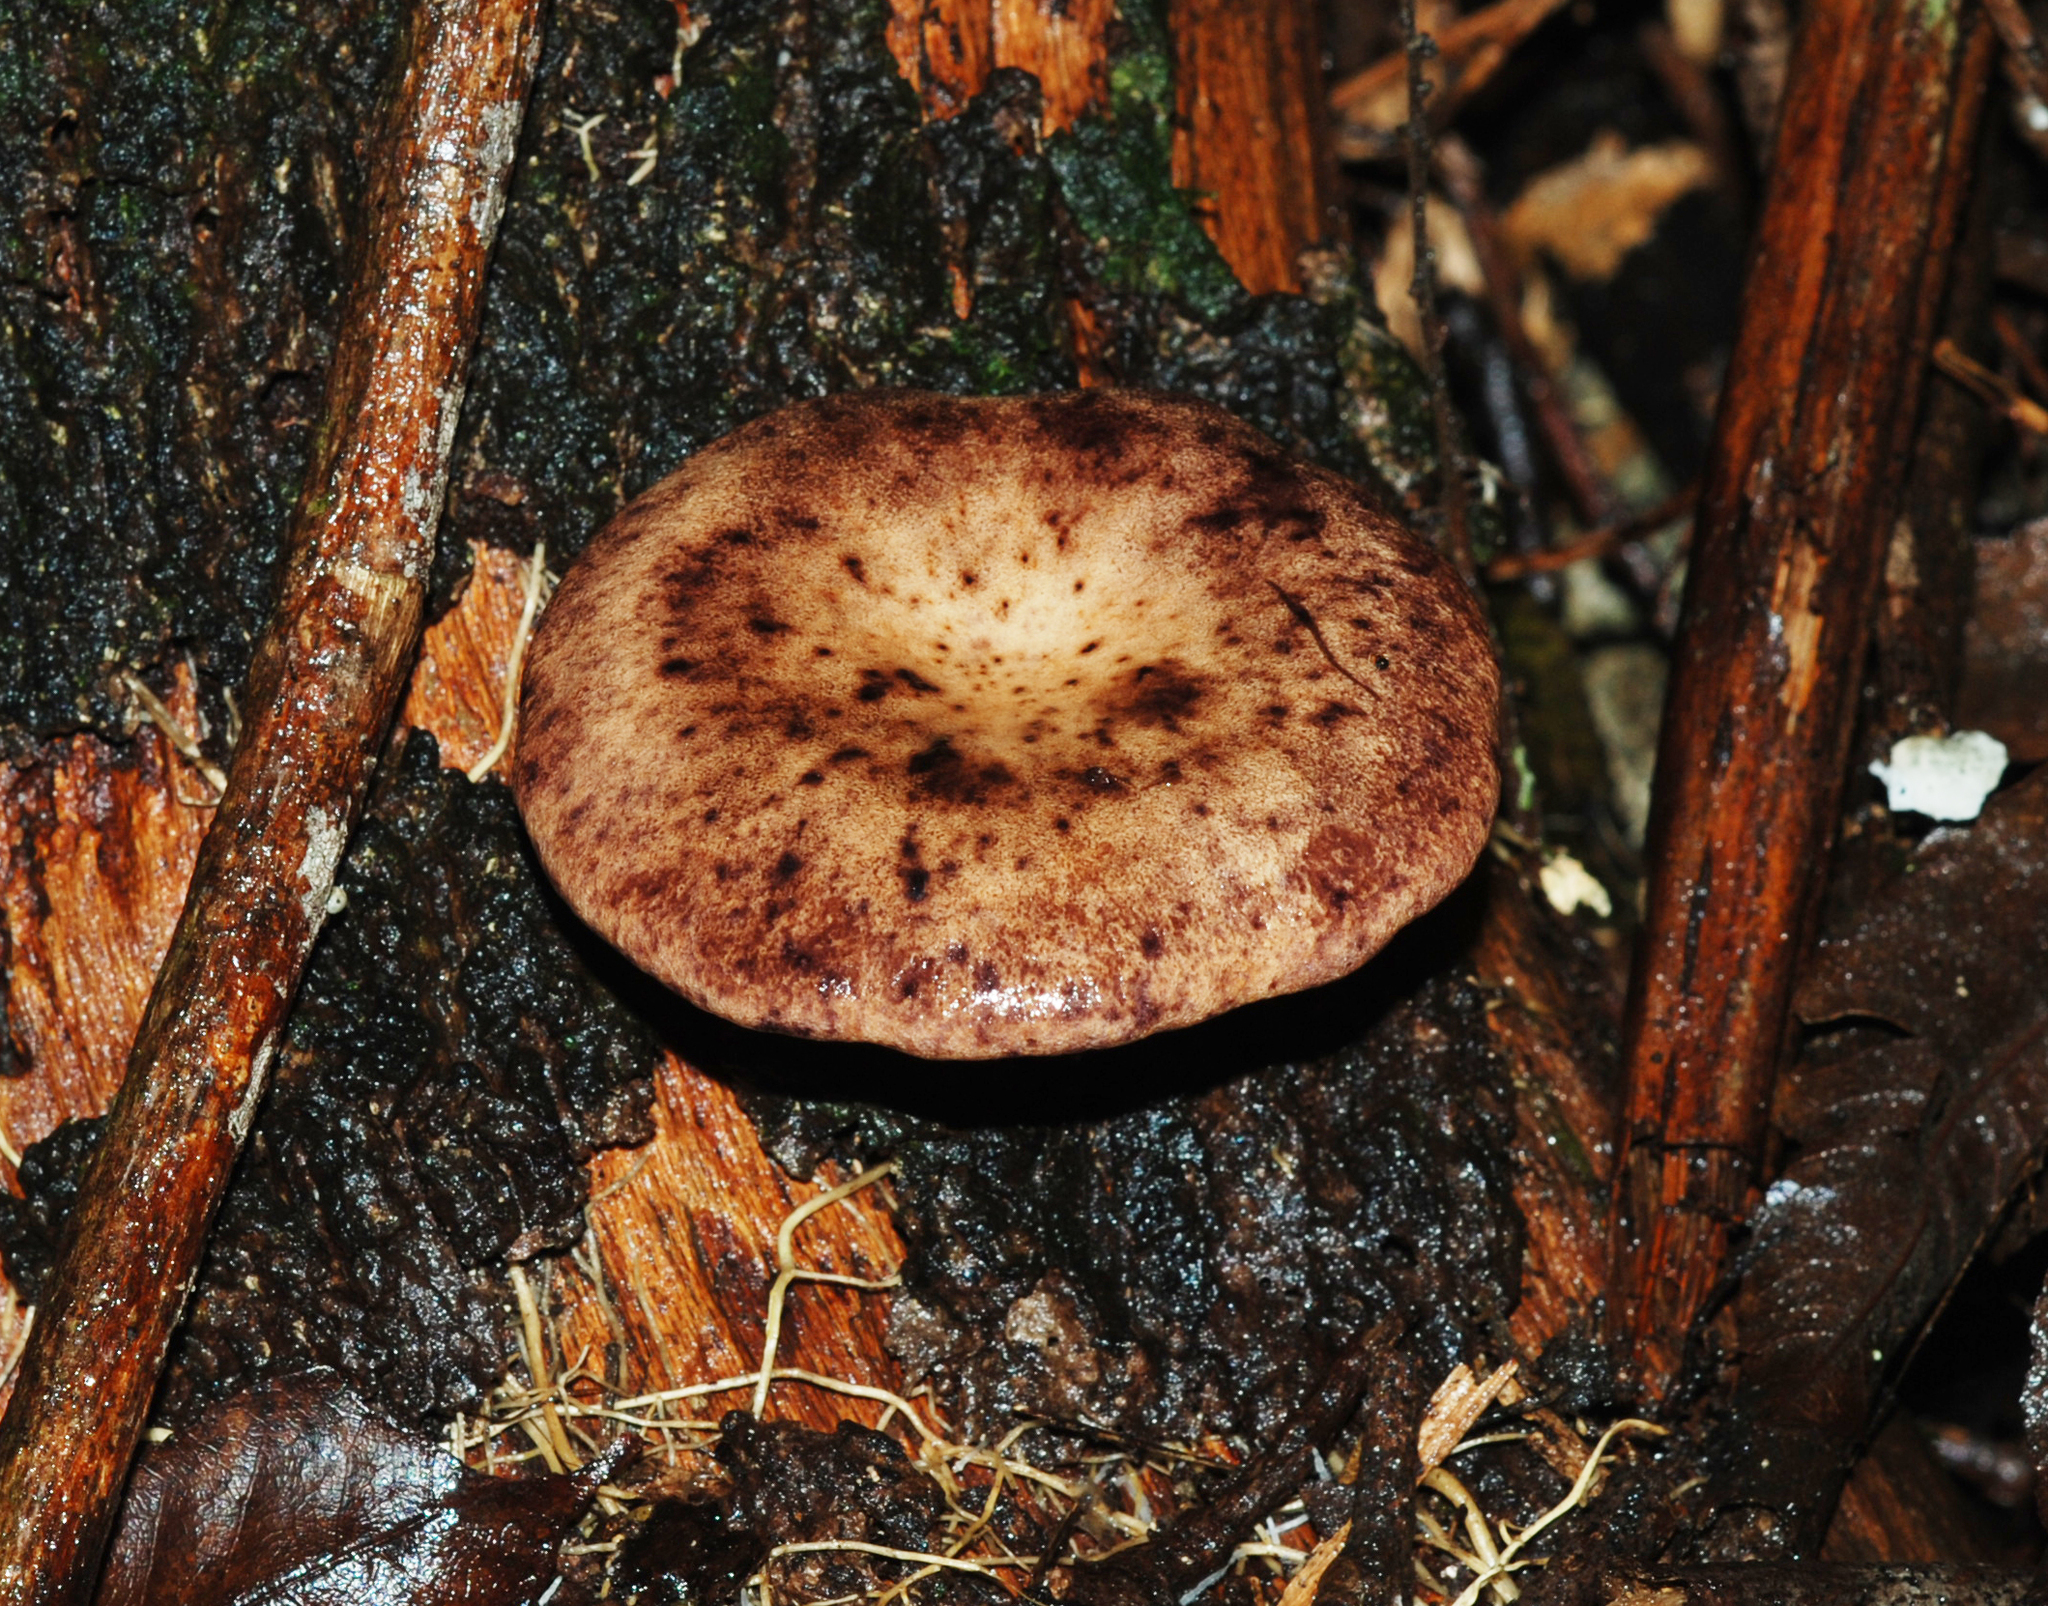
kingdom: Fungi
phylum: Basidiomycota
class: Agaricomycetes
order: Polyporales
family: Panaceae
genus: Panus
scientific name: Panus purpuratus
